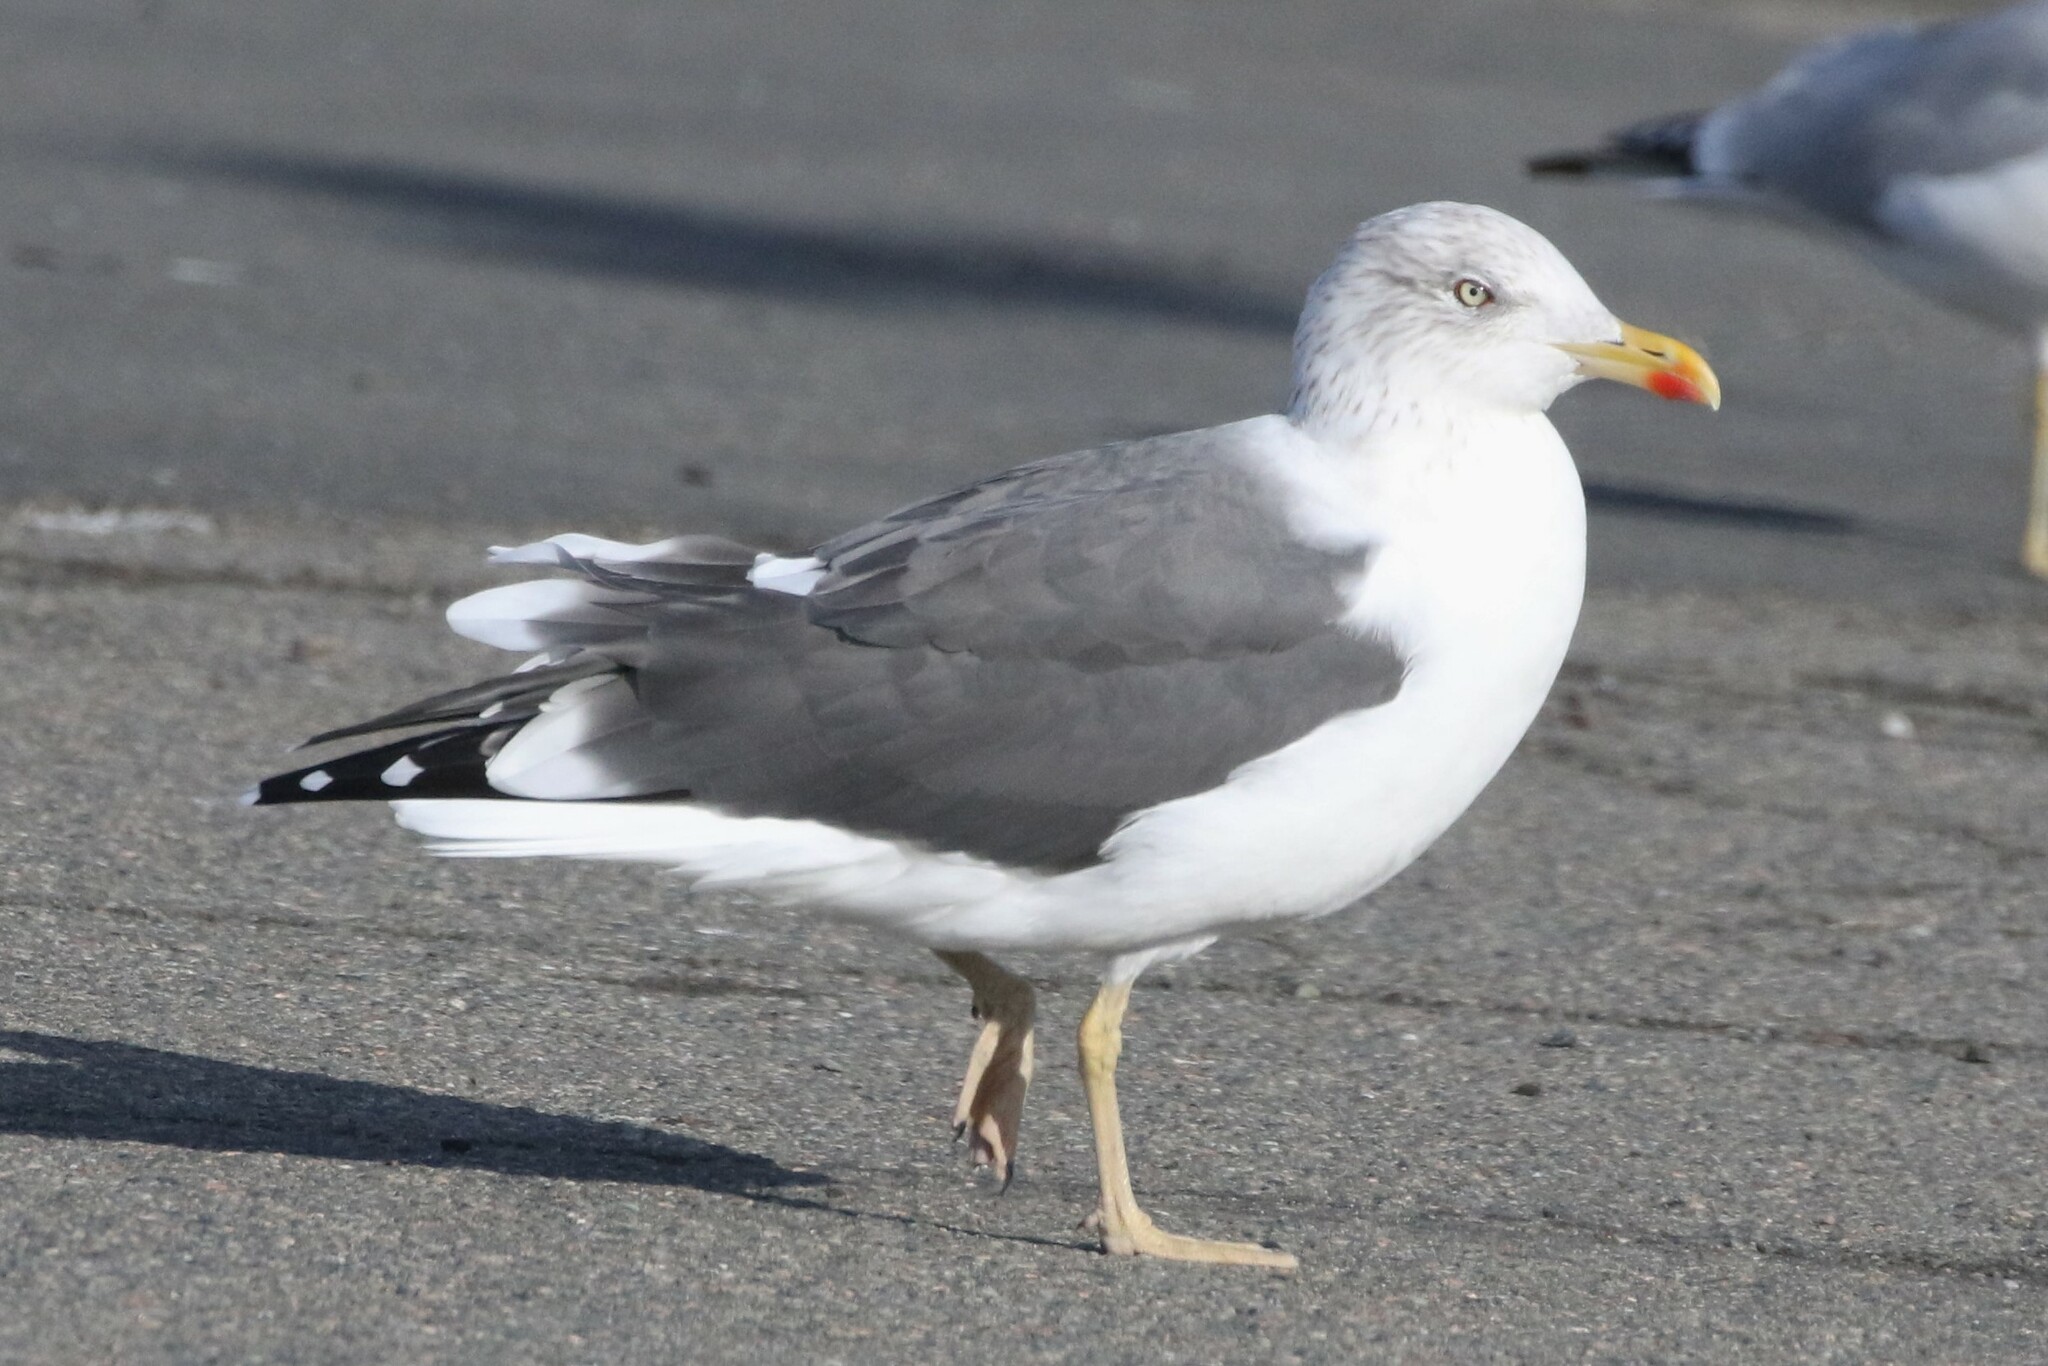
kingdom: Animalia
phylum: Chordata
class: Aves
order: Charadriiformes
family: Laridae
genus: Larus
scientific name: Larus fuscus
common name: Lesser black-backed gull
